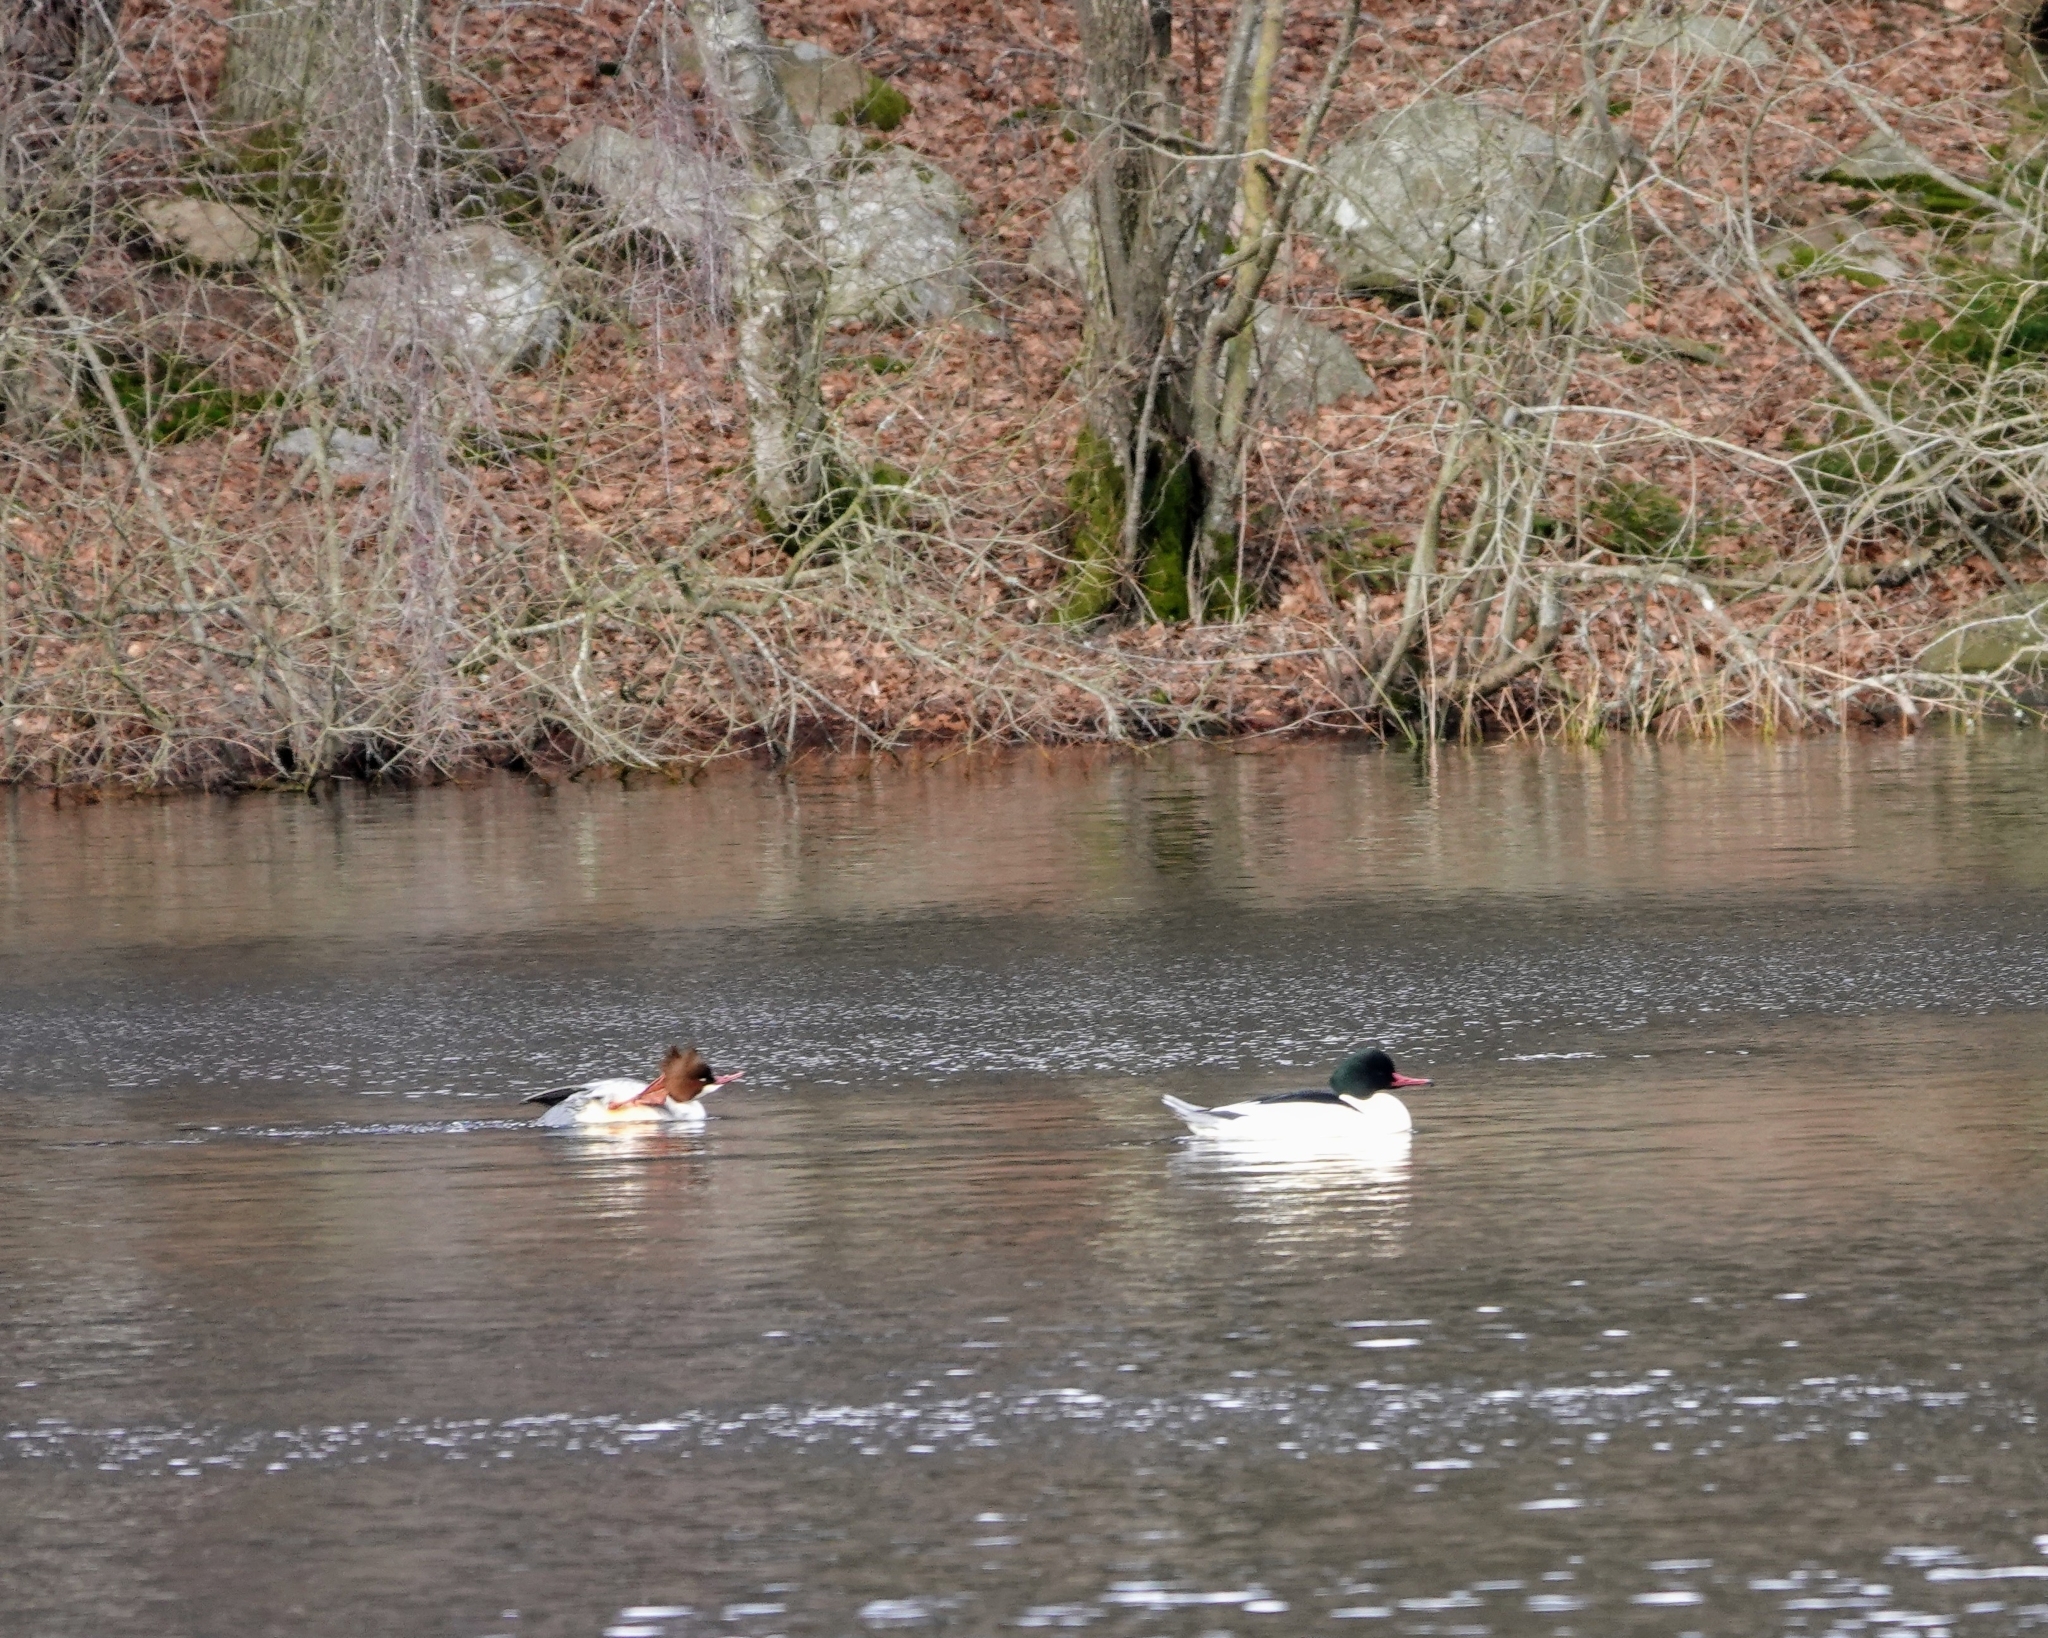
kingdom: Animalia
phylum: Chordata
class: Aves
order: Anseriformes
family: Anatidae
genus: Mergus
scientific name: Mergus merganser
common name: Common merganser
